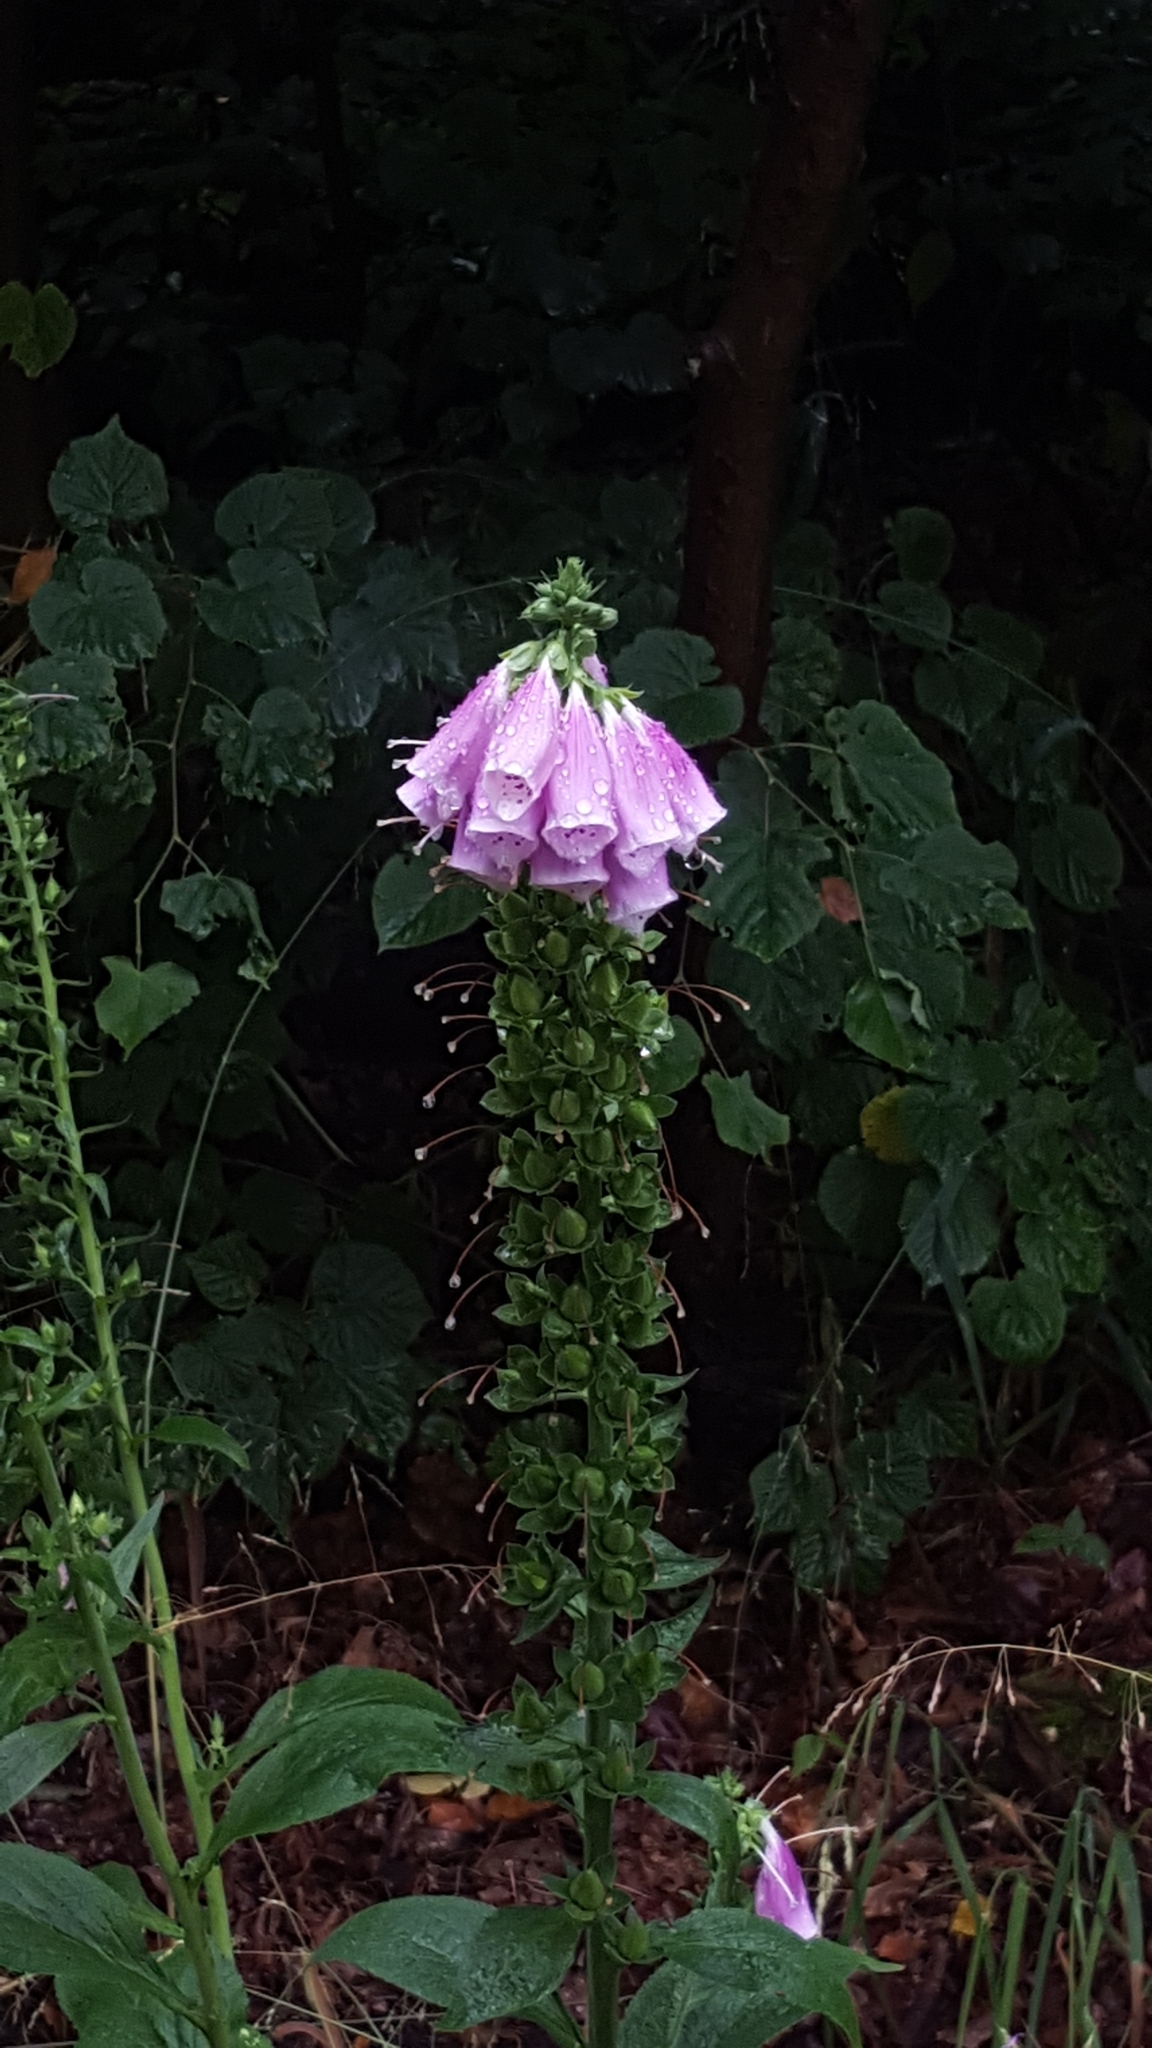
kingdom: Plantae
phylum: Tracheophyta
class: Magnoliopsida
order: Lamiales
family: Plantaginaceae
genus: Digitalis
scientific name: Digitalis purpurea
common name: Foxglove
